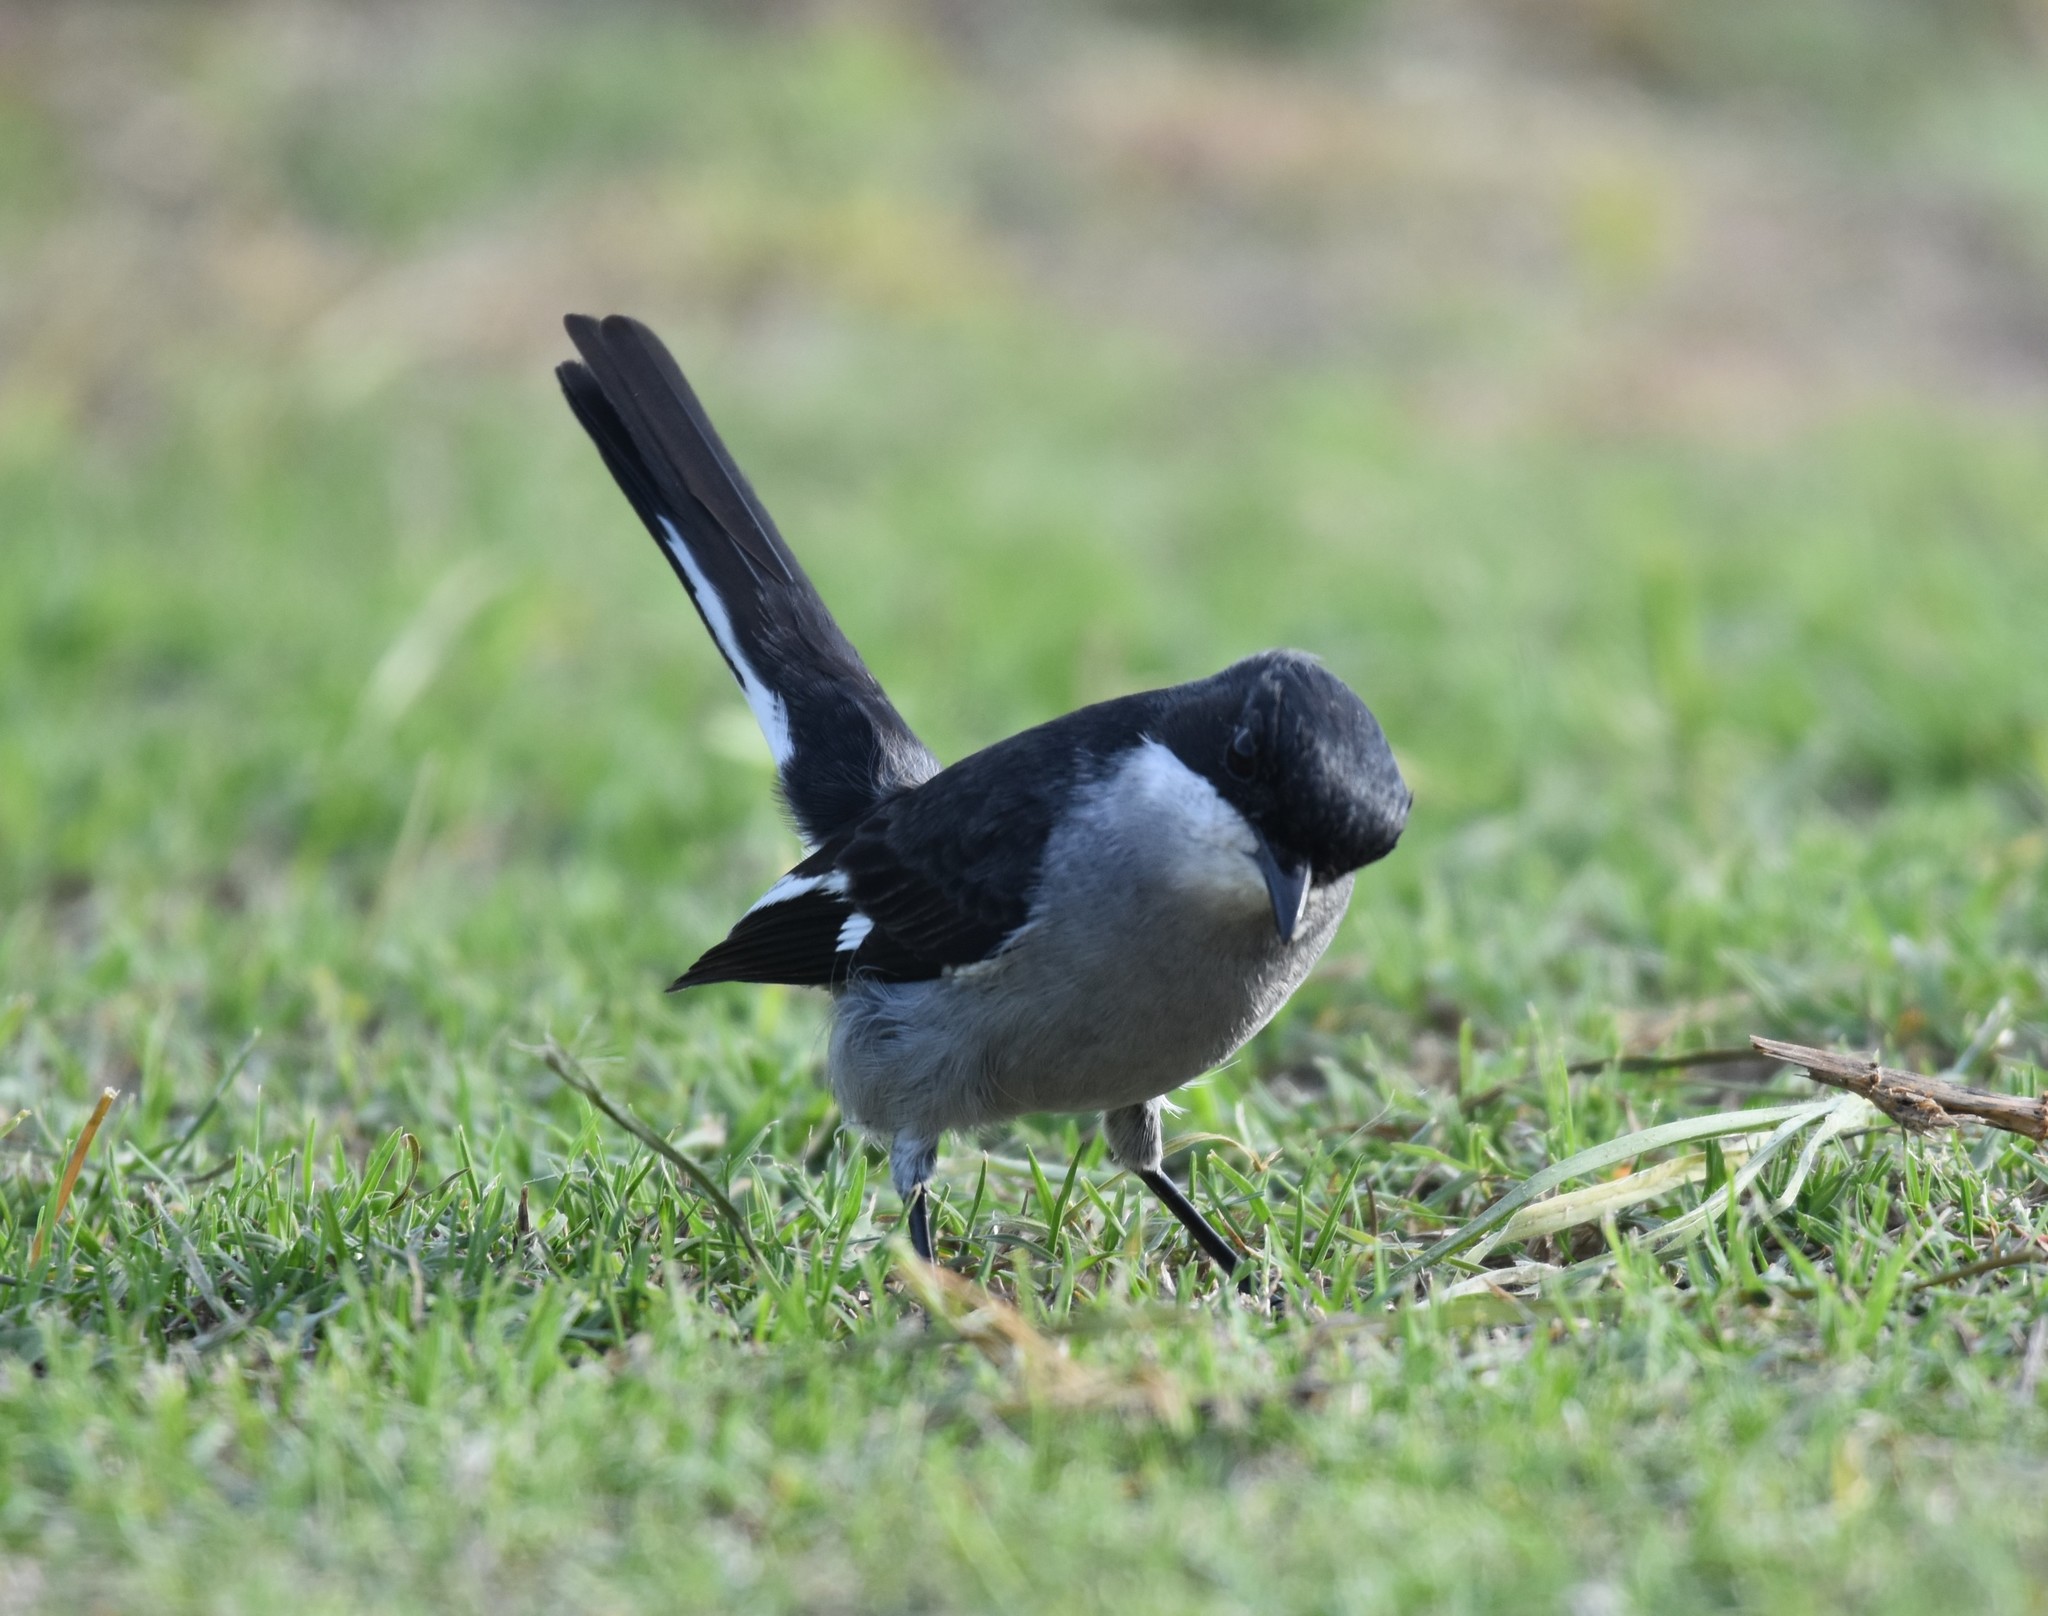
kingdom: Animalia
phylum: Chordata
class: Aves
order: Passeriformes
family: Muscicapidae
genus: Sigelus
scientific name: Sigelus silens
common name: Fiscal flycatcher
